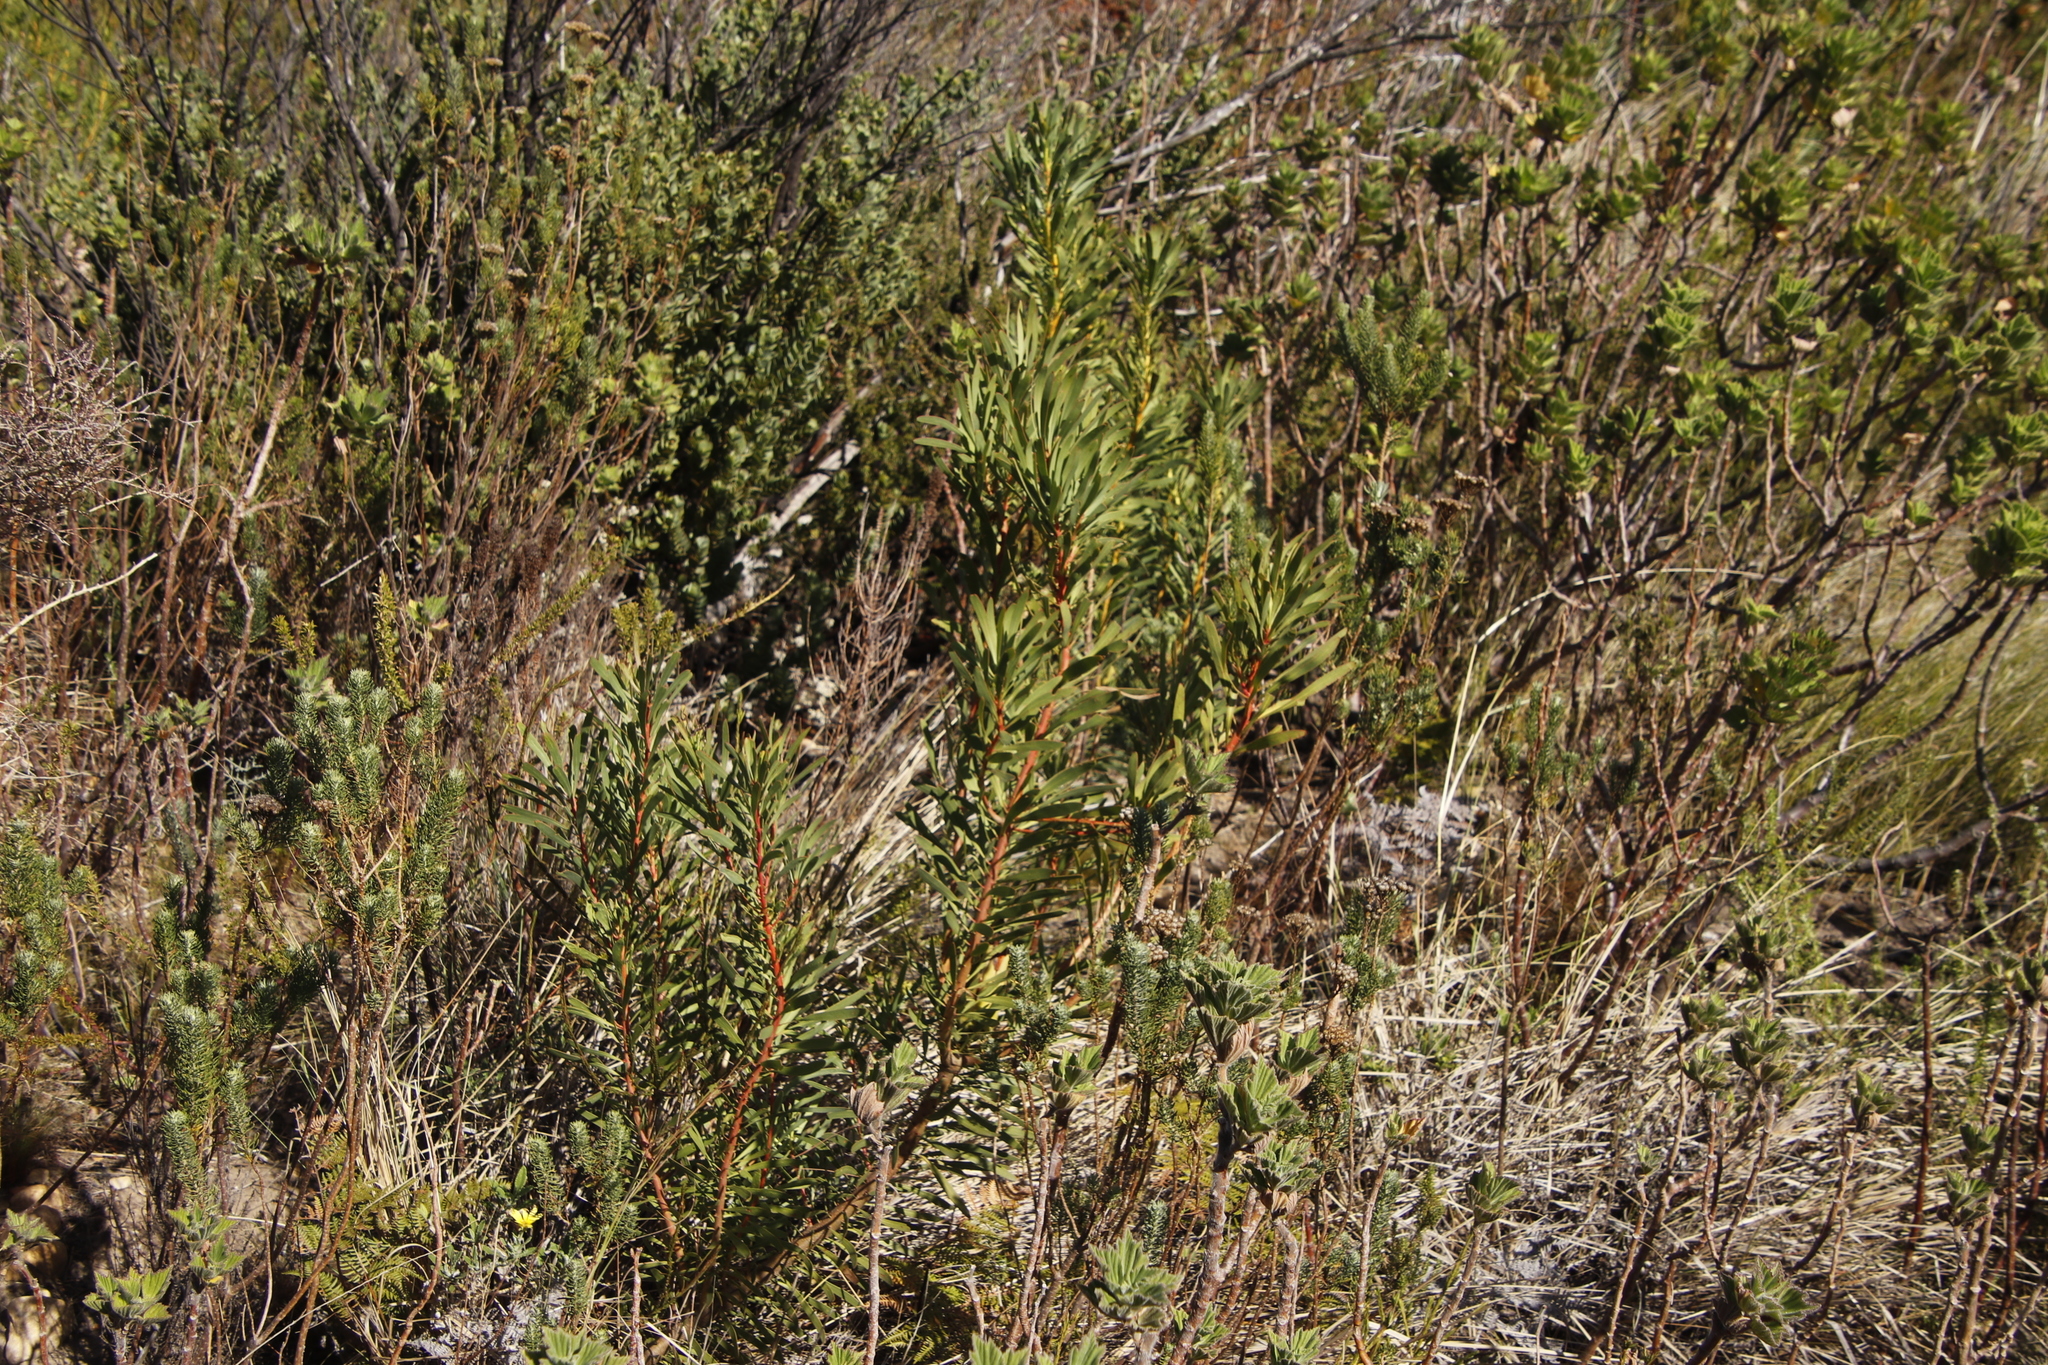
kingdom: Plantae
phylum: Tracheophyta
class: Magnoliopsida
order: Proteales
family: Proteaceae
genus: Protea
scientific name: Protea repens
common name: Sugarbush
